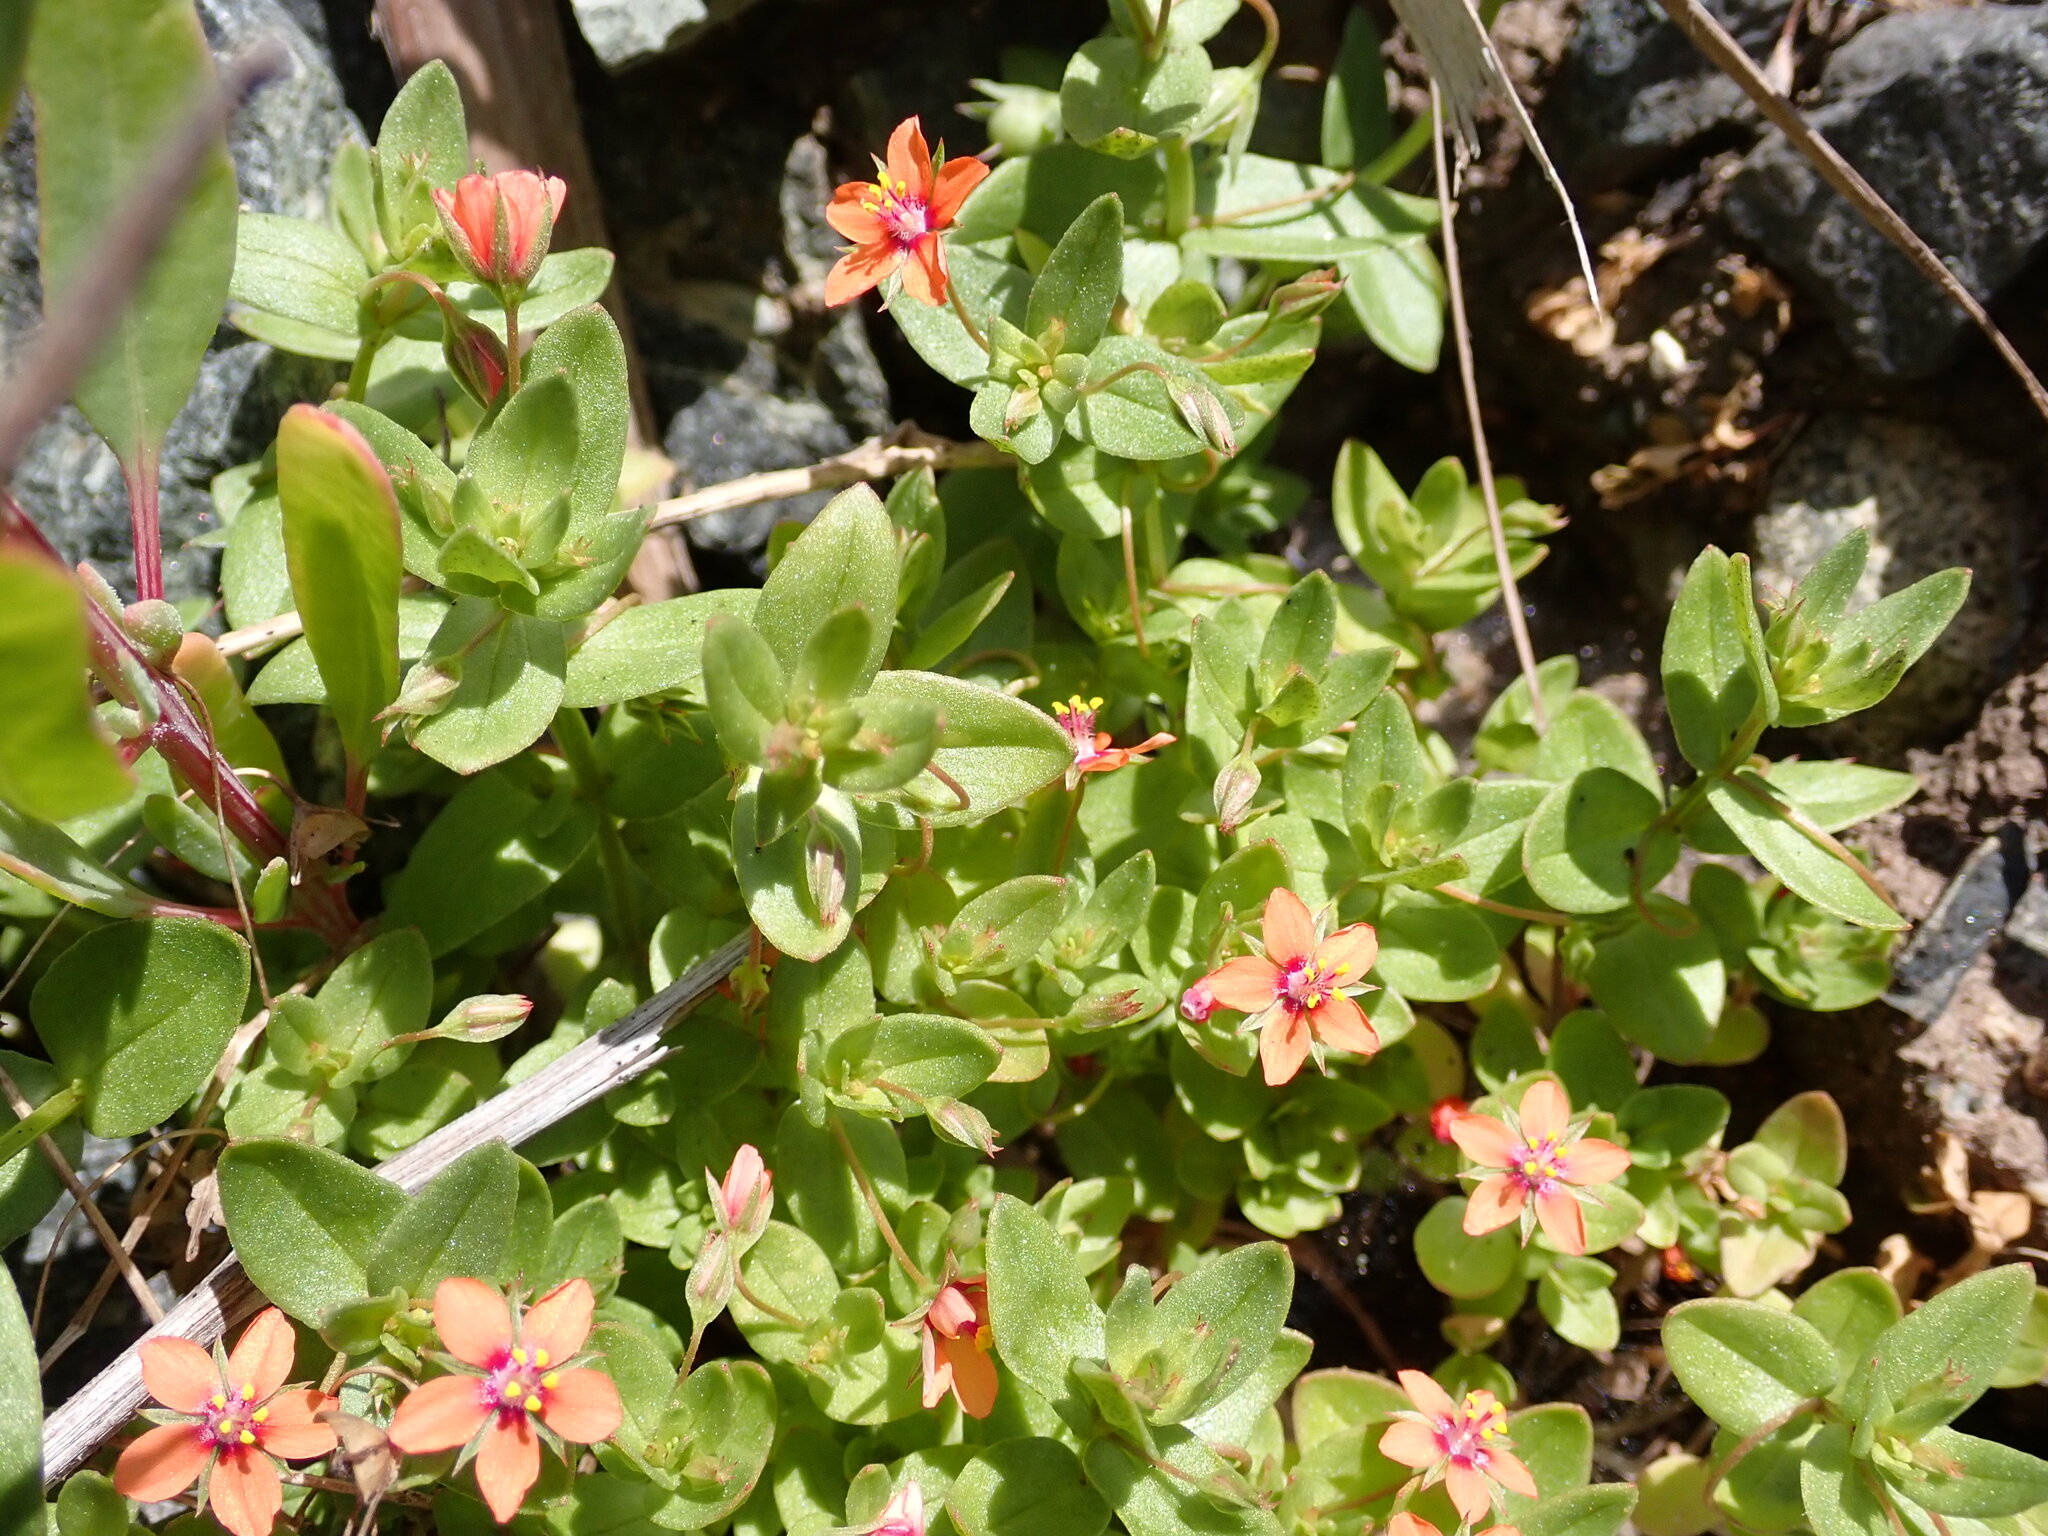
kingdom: Plantae
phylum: Tracheophyta
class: Magnoliopsida
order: Ericales
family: Primulaceae
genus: Lysimachia
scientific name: Lysimachia arvensis
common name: Scarlet pimpernel
